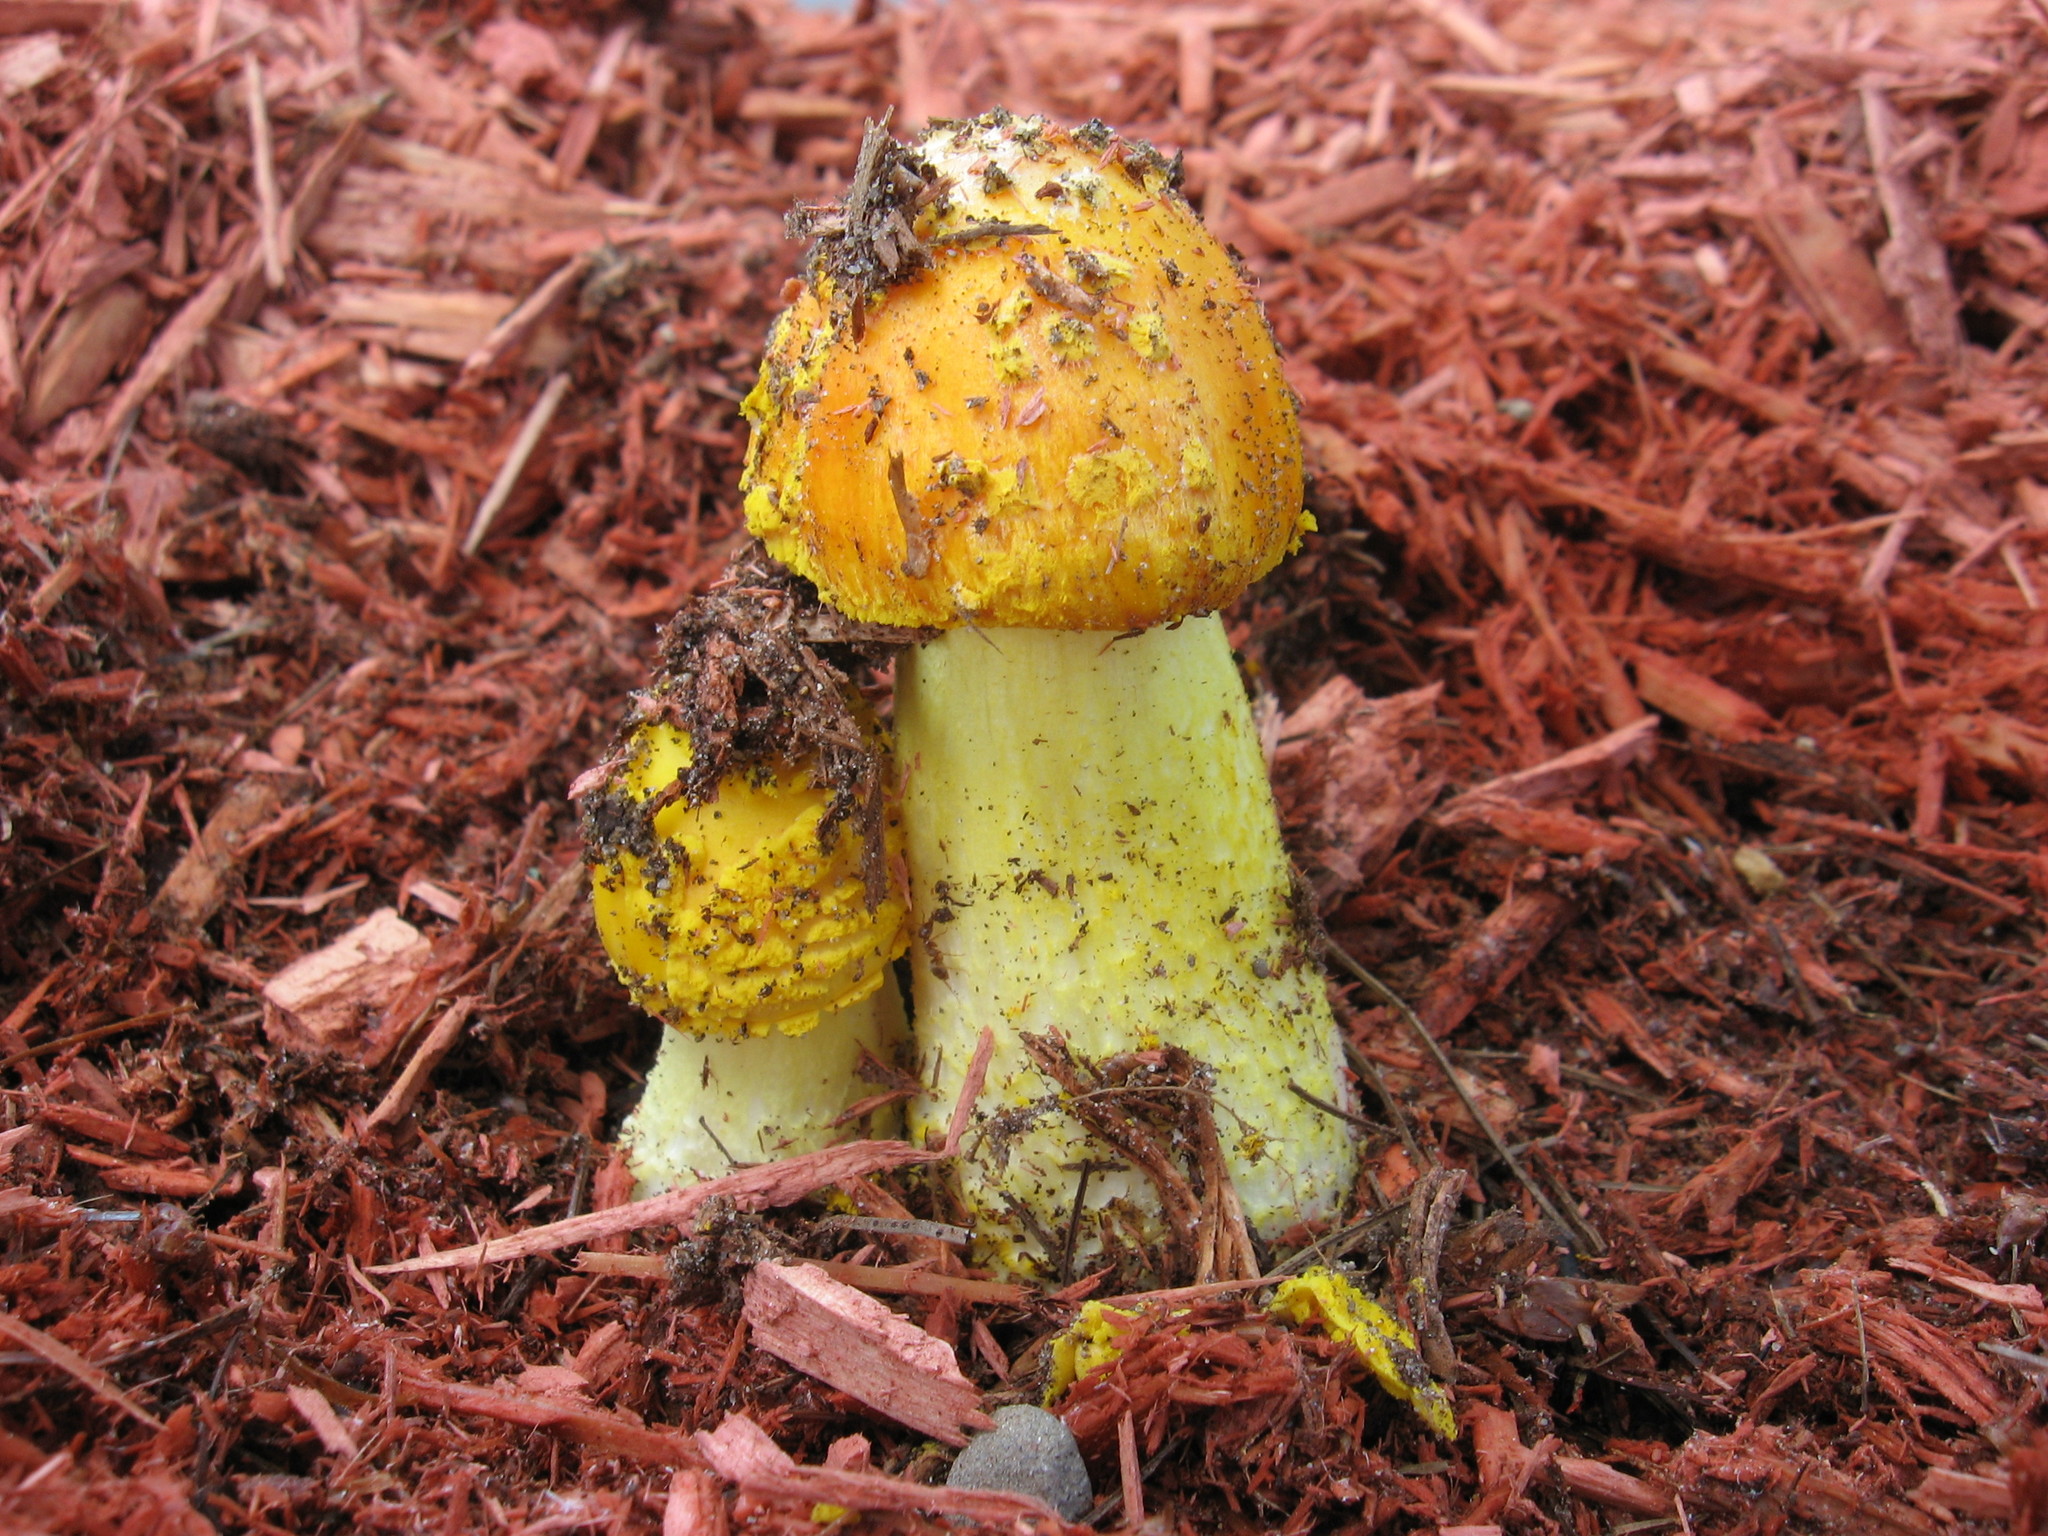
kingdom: Fungi
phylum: Basidiomycota
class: Agaricomycetes
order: Agaricales
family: Amanitaceae
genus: Amanita
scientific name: Amanita flavoconia
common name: Yellow patches
